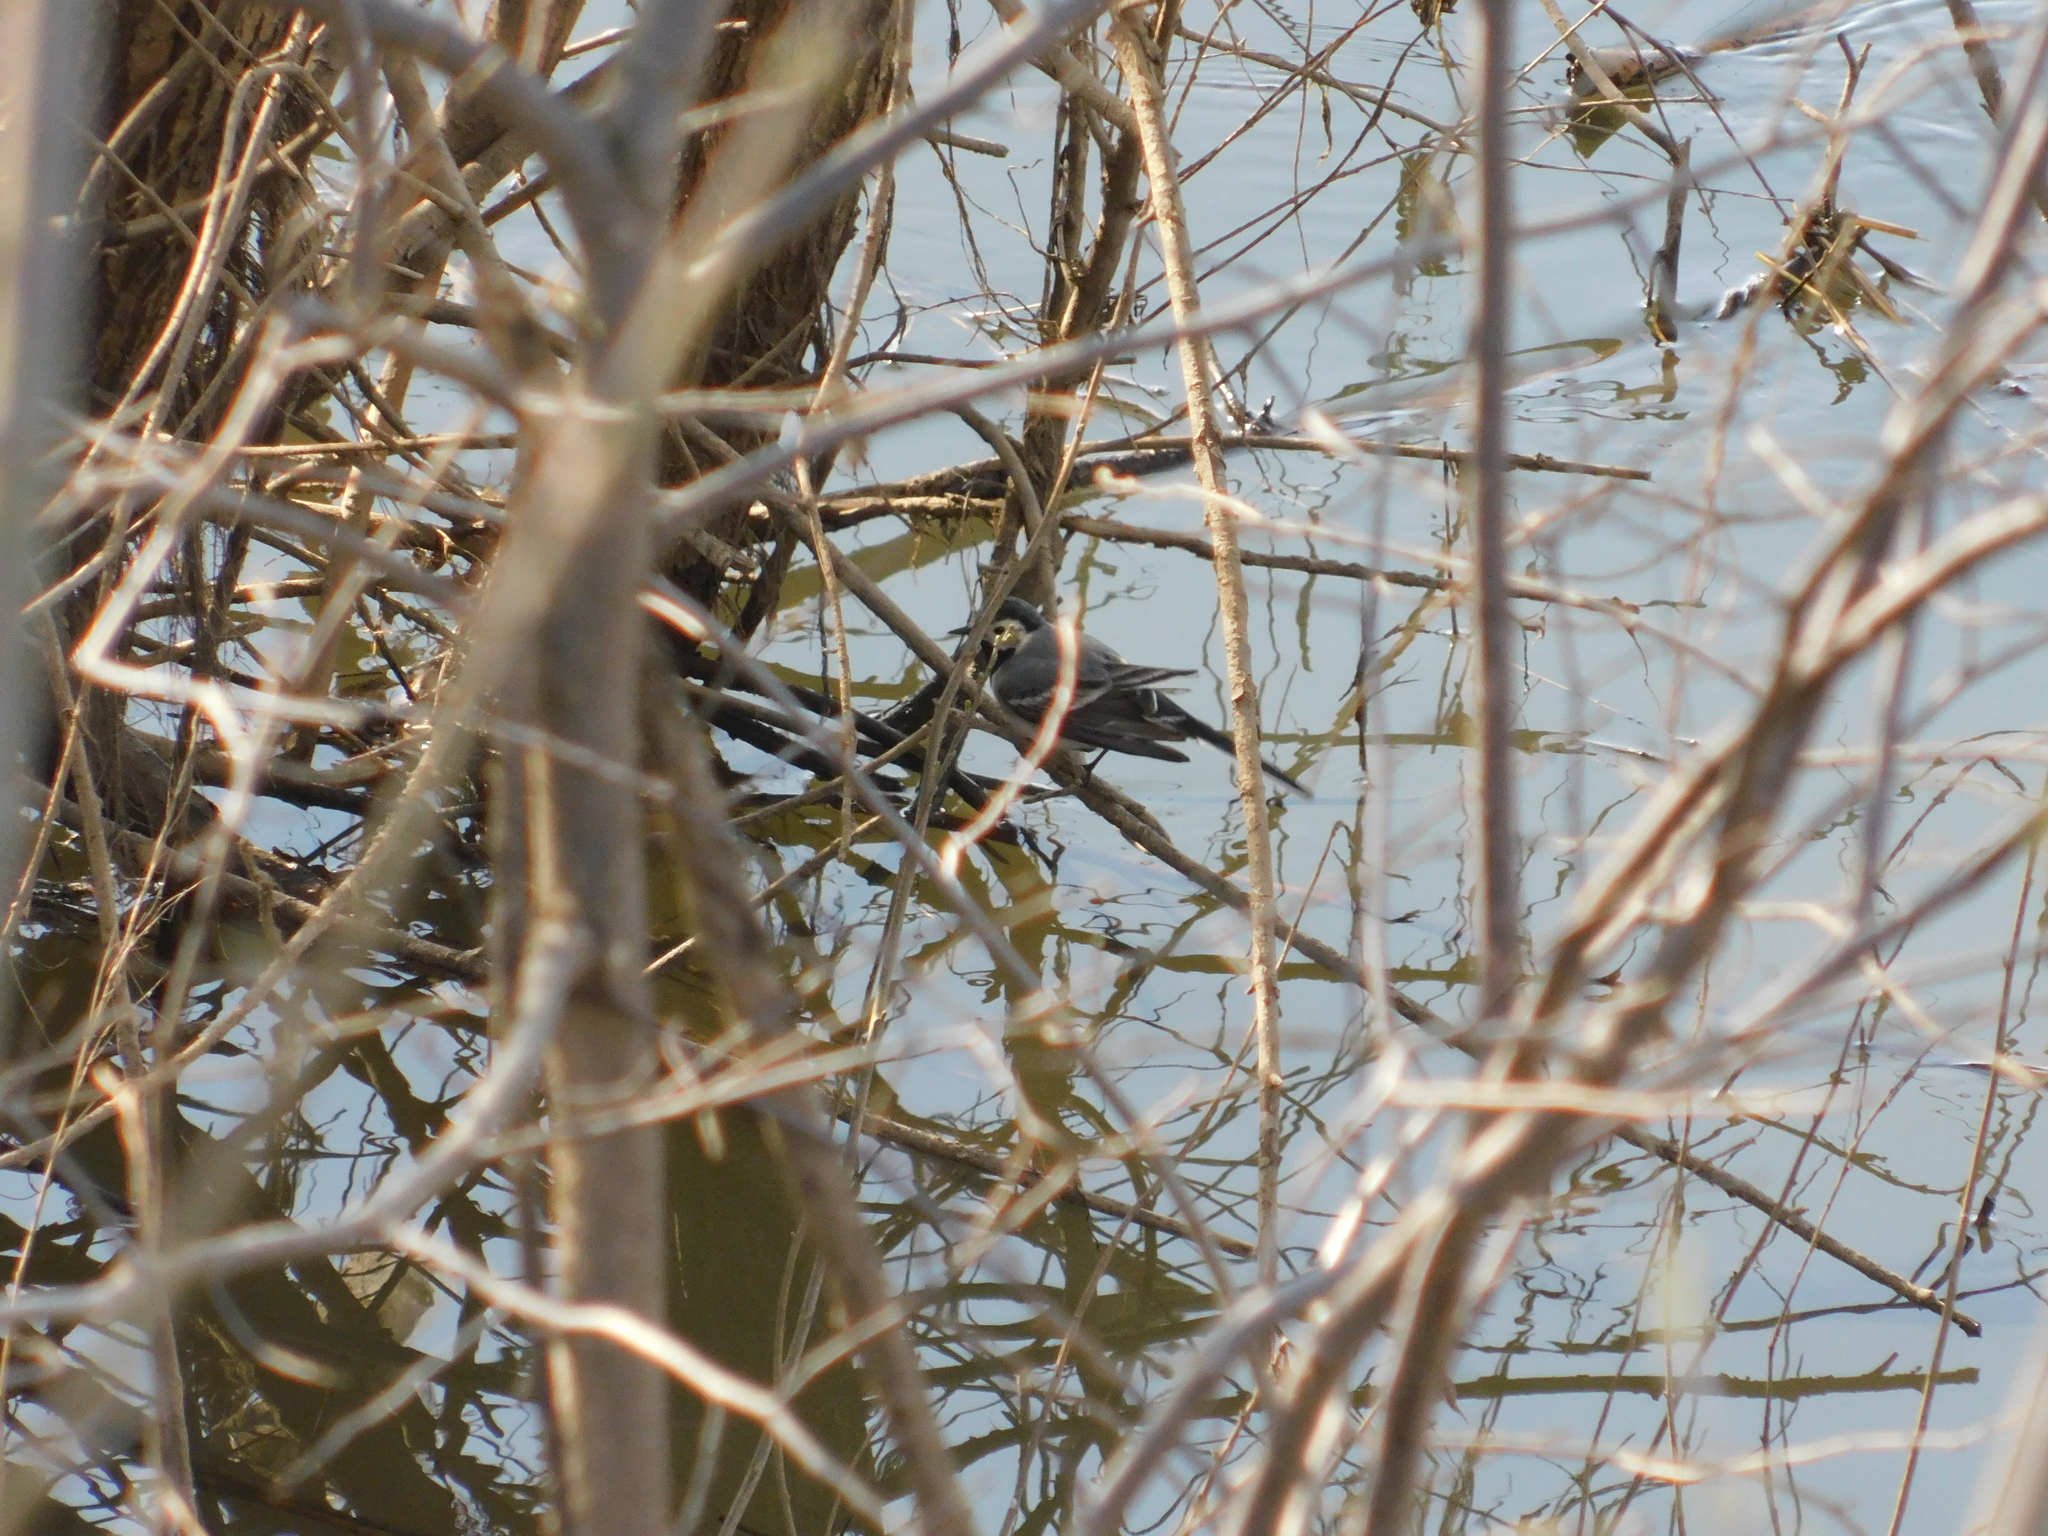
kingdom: Animalia
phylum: Chordata
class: Aves
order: Passeriformes
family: Motacillidae
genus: Motacilla
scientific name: Motacilla alba
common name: White wagtail
